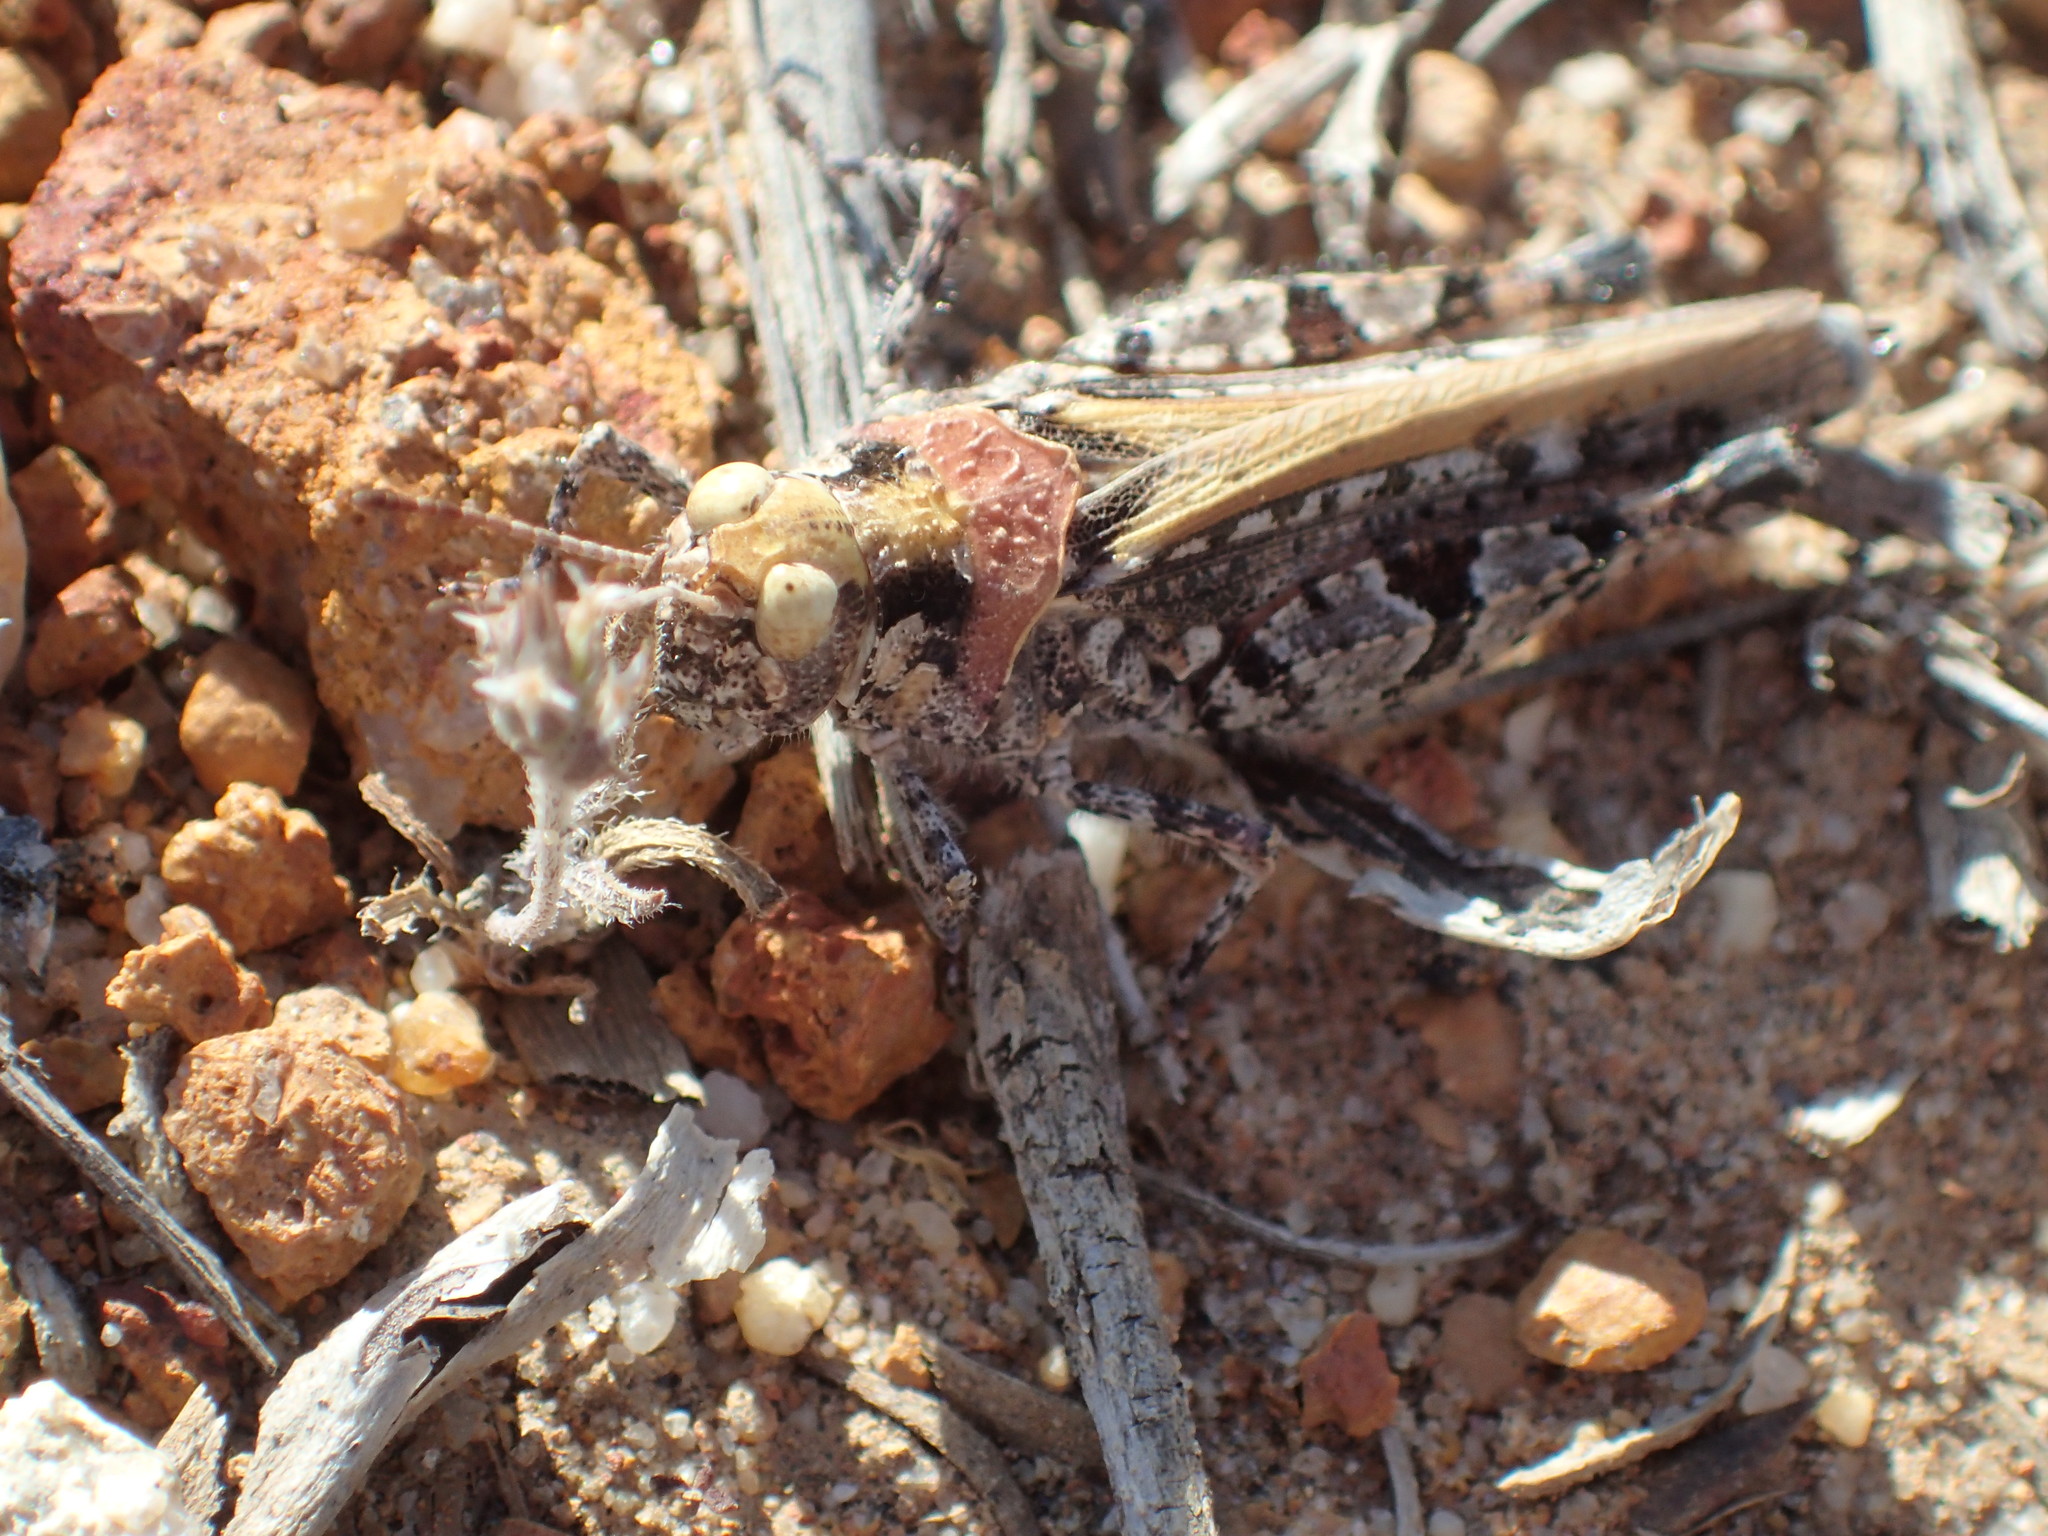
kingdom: Animalia
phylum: Arthropoda
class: Insecta
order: Orthoptera
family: Acrididae
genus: Urnisa
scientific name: Urnisa rugosa
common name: Red-legged urnisa
